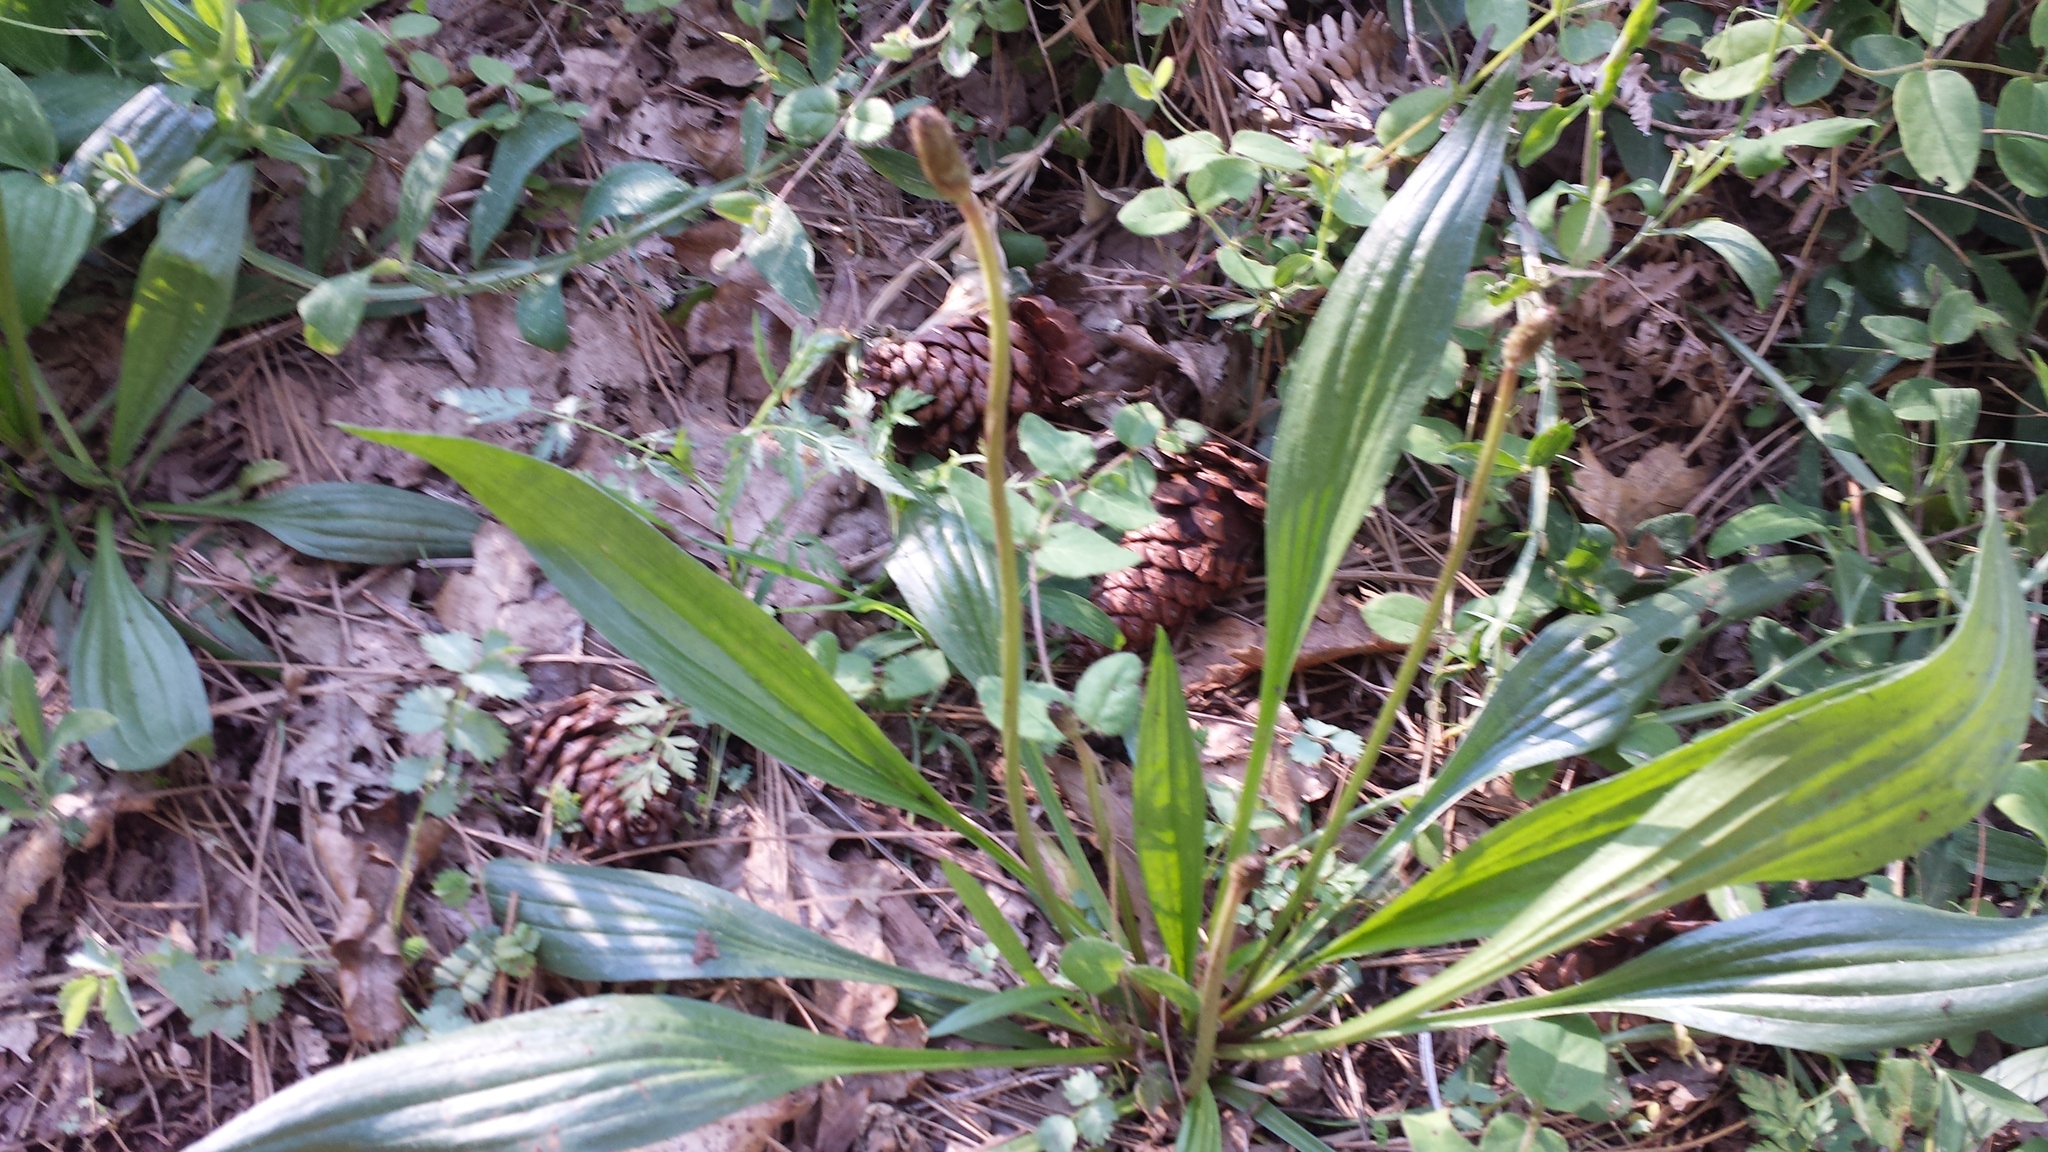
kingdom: Plantae
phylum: Tracheophyta
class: Magnoliopsida
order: Lamiales
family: Plantaginaceae
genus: Plantago
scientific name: Plantago lanceolata
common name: Ribwort plantain
